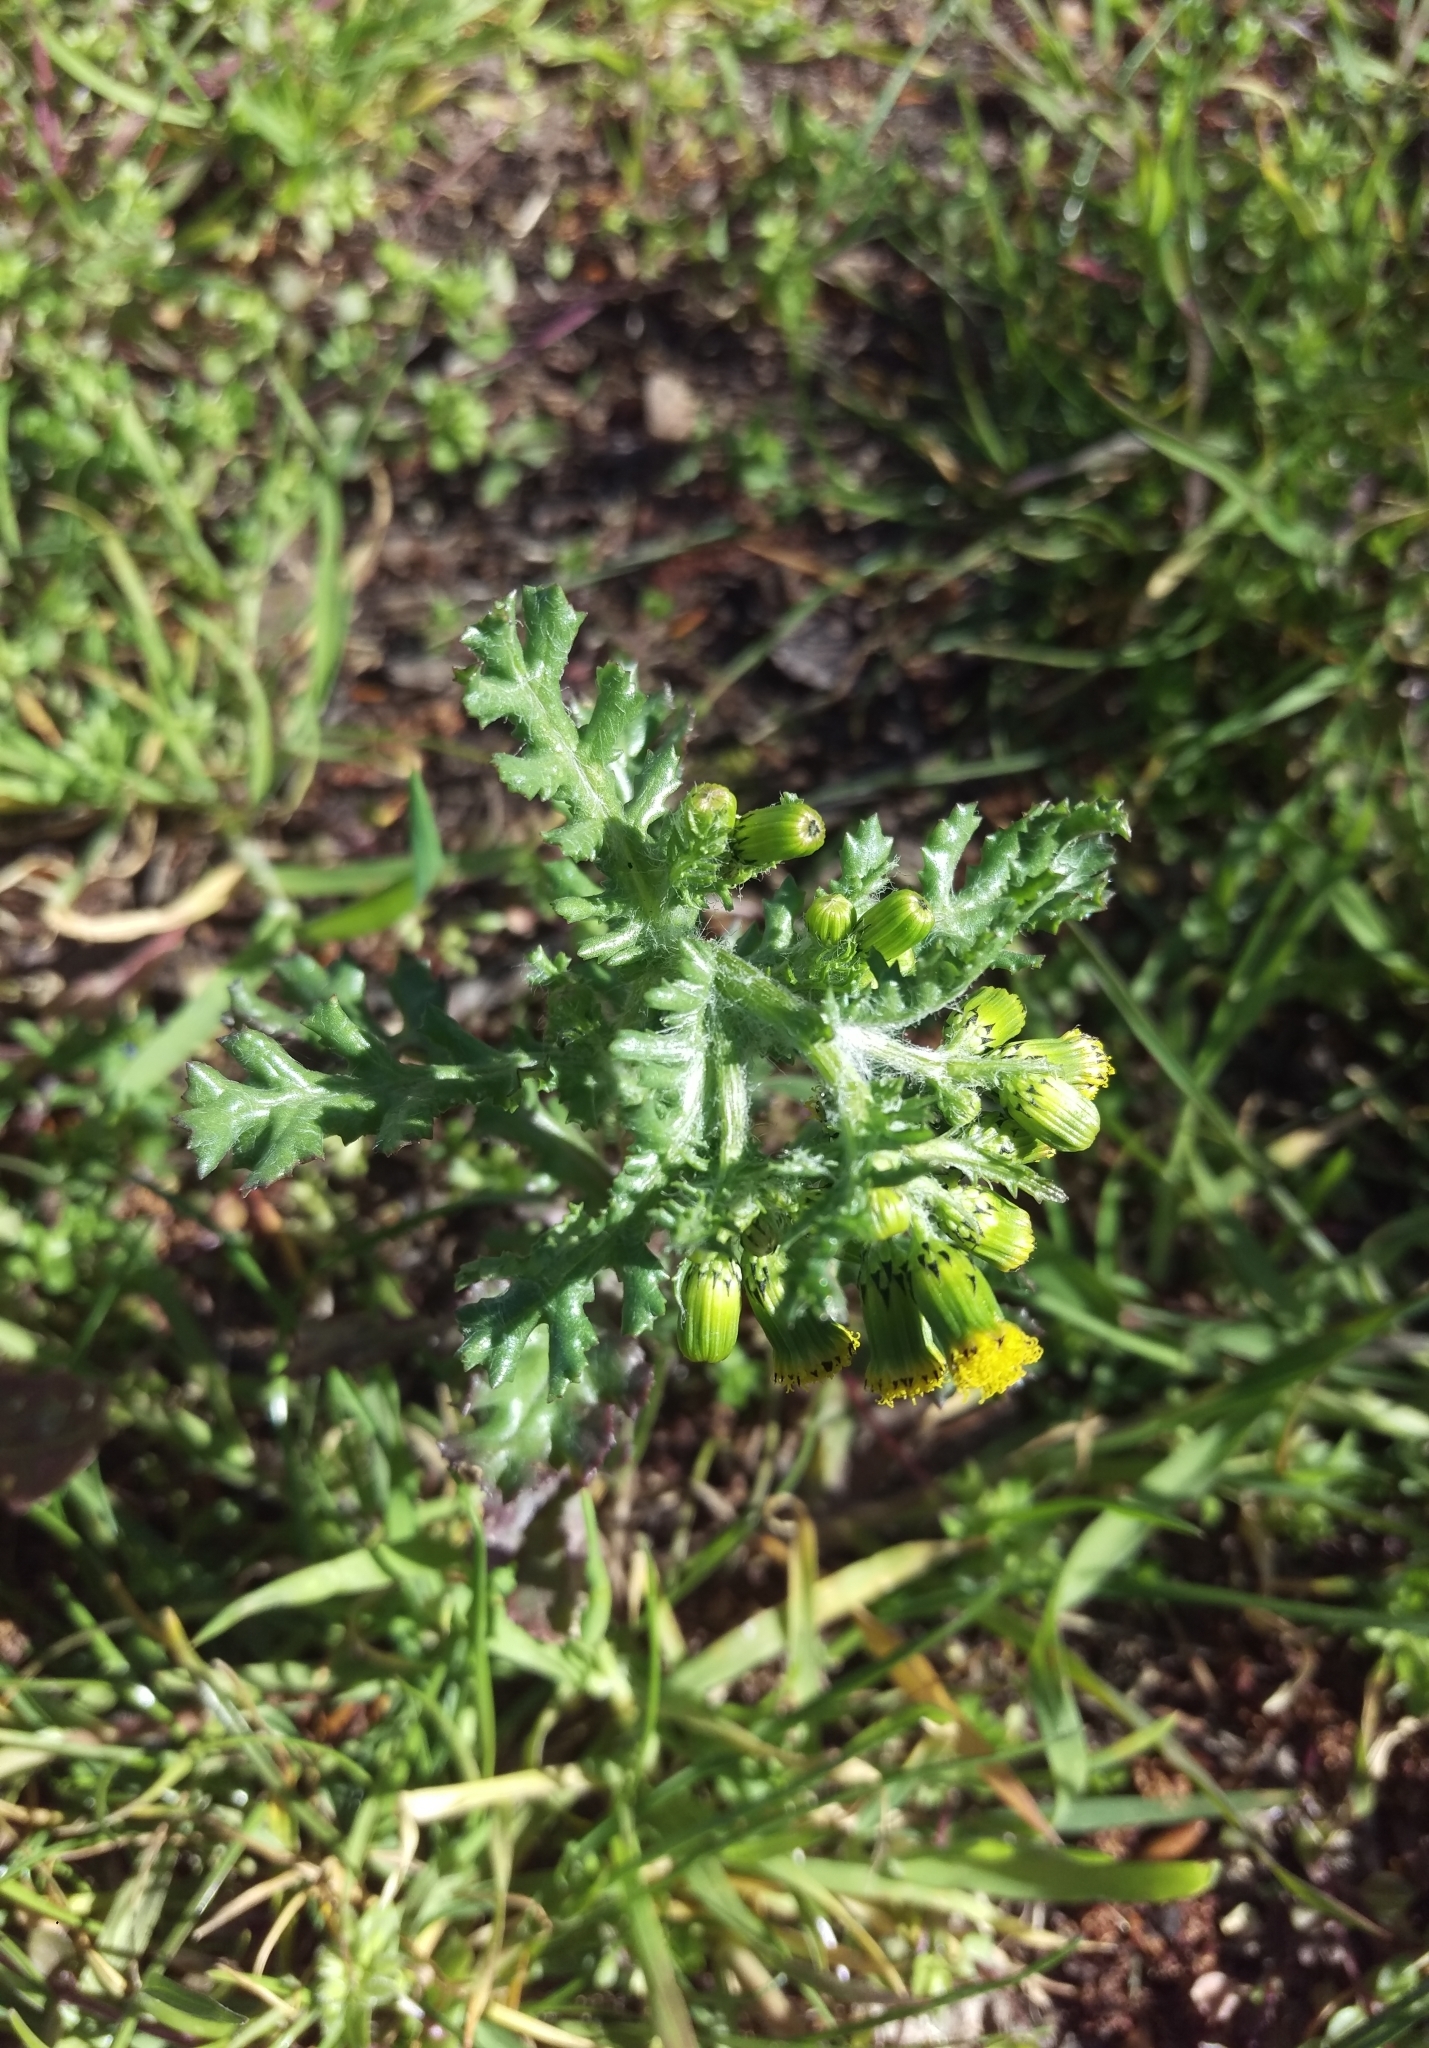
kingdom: Plantae
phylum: Tracheophyta
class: Magnoliopsida
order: Asterales
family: Asteraceae
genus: Senecio
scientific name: Senecio vulgaris
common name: Old-man-in-the-spring
